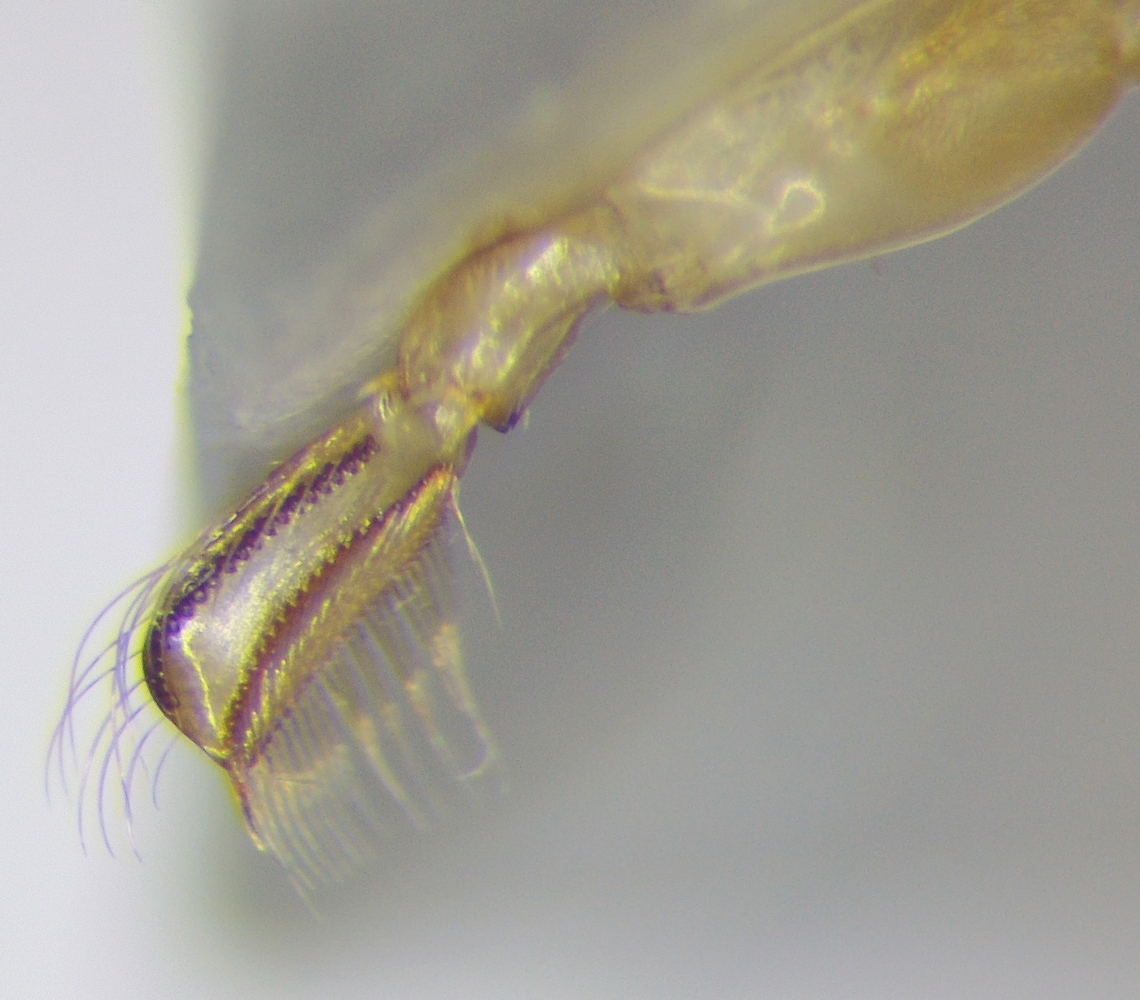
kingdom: Animalia
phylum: Arthropoda
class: Insecta
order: Hemiptera
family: Corixidae
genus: Hesperocorixa
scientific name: Hesperocorixa linnaei
